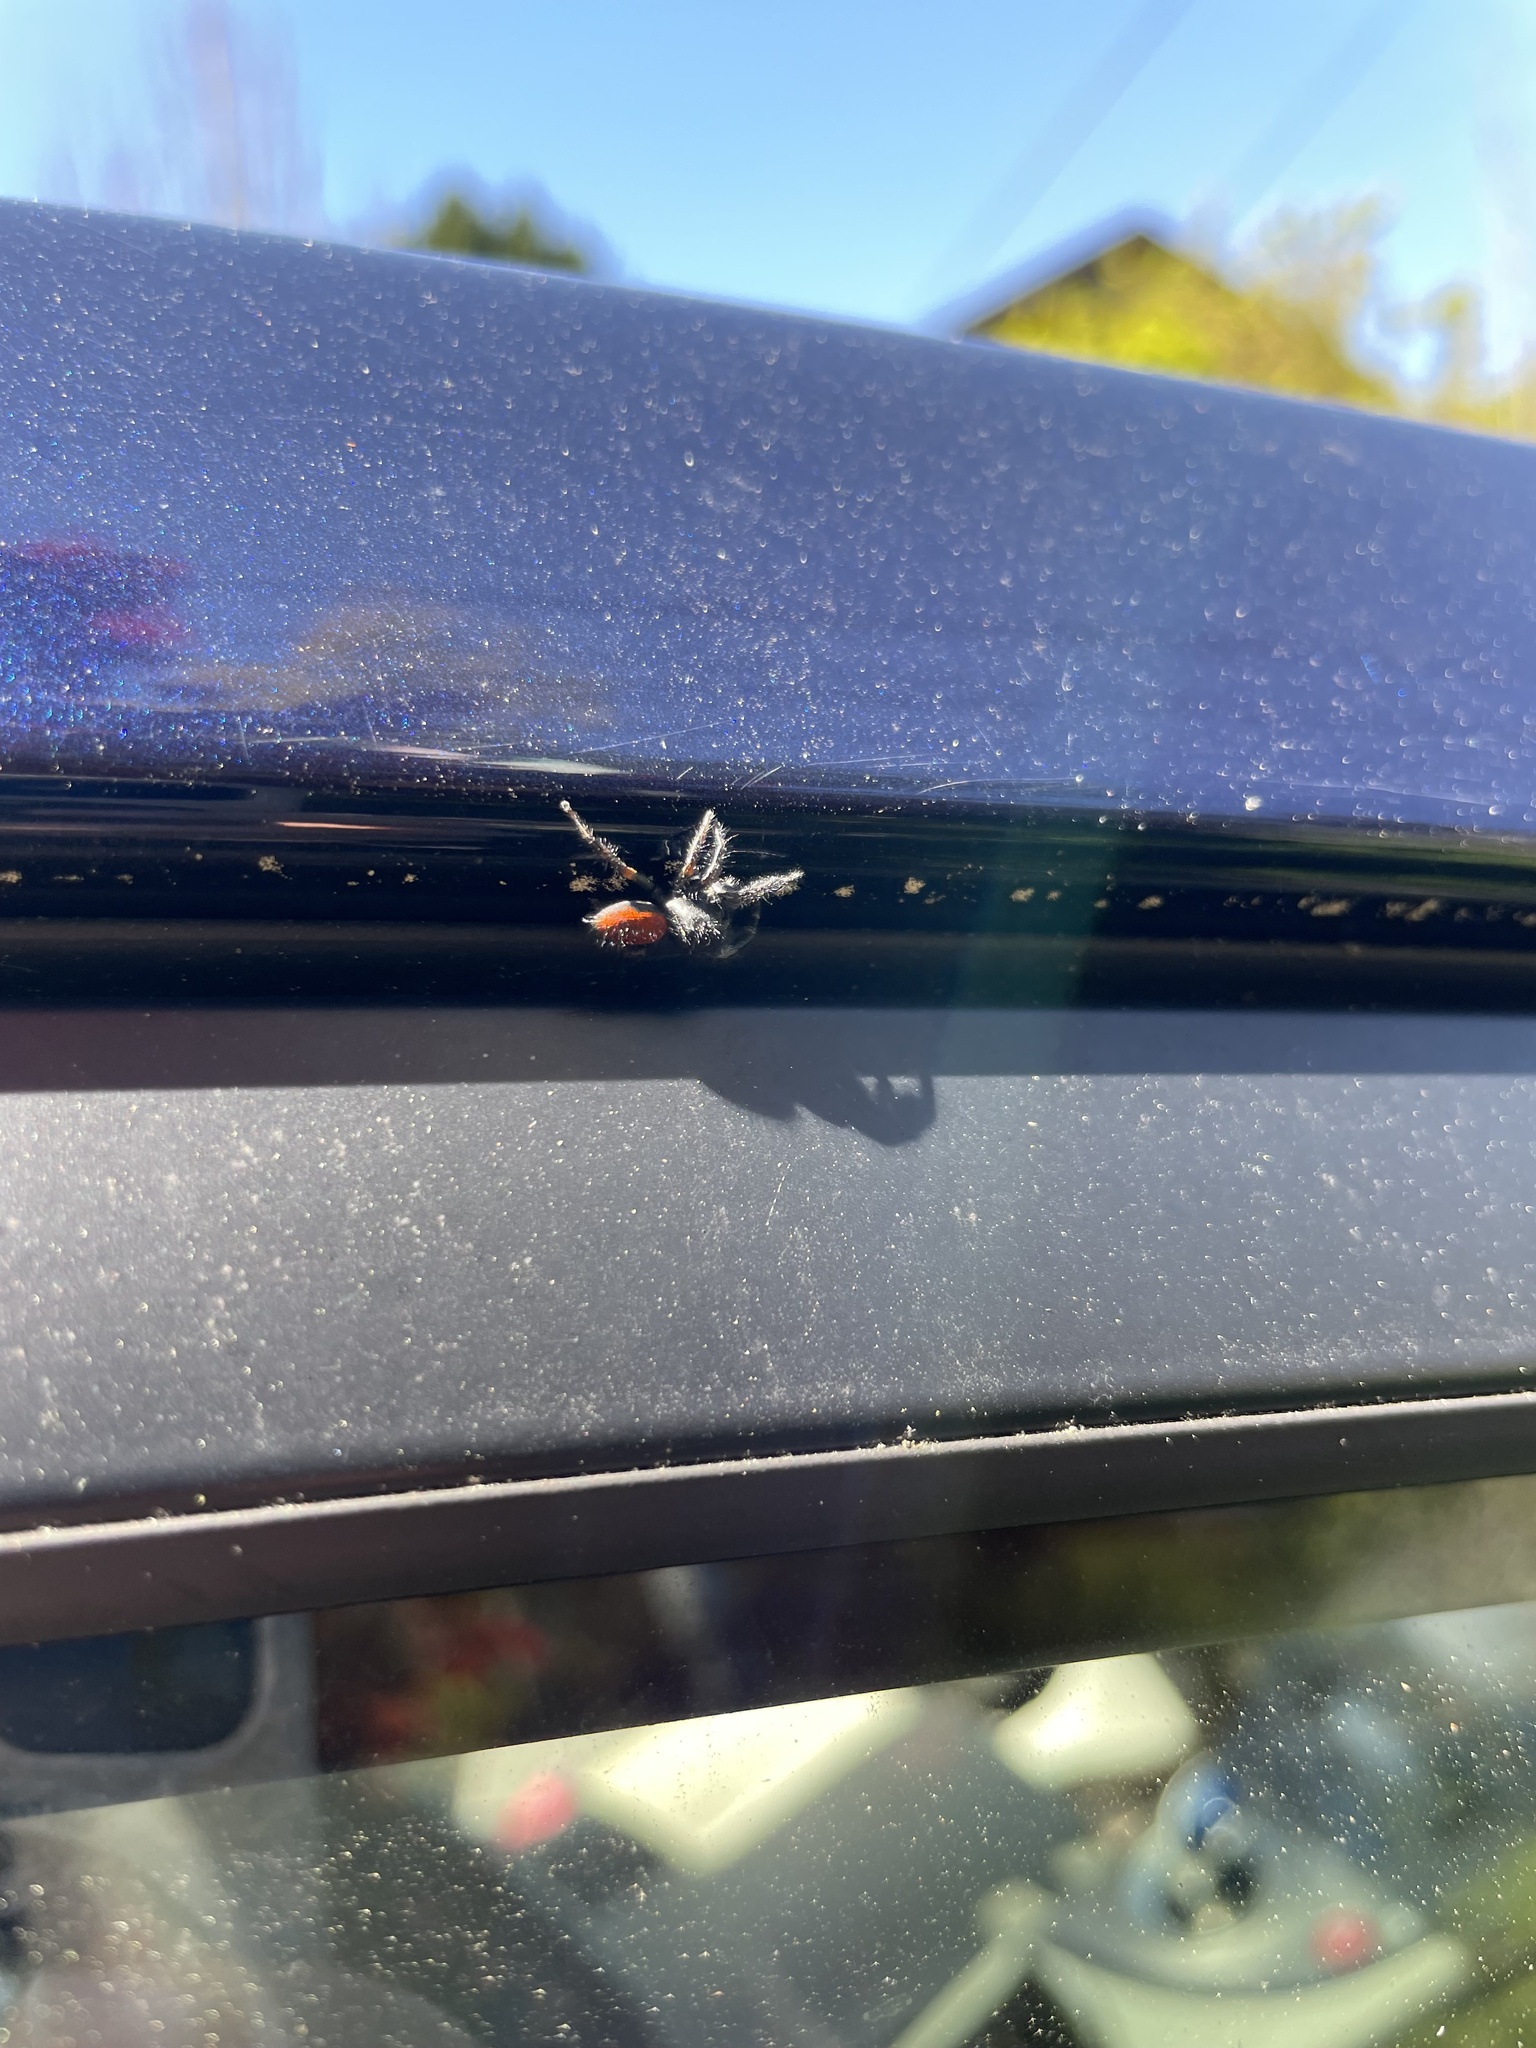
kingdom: Animalia
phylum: Arthropoda
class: Arachnida
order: Araneae
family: Salticidae
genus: Phidippus
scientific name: Phidippus johnsoni
